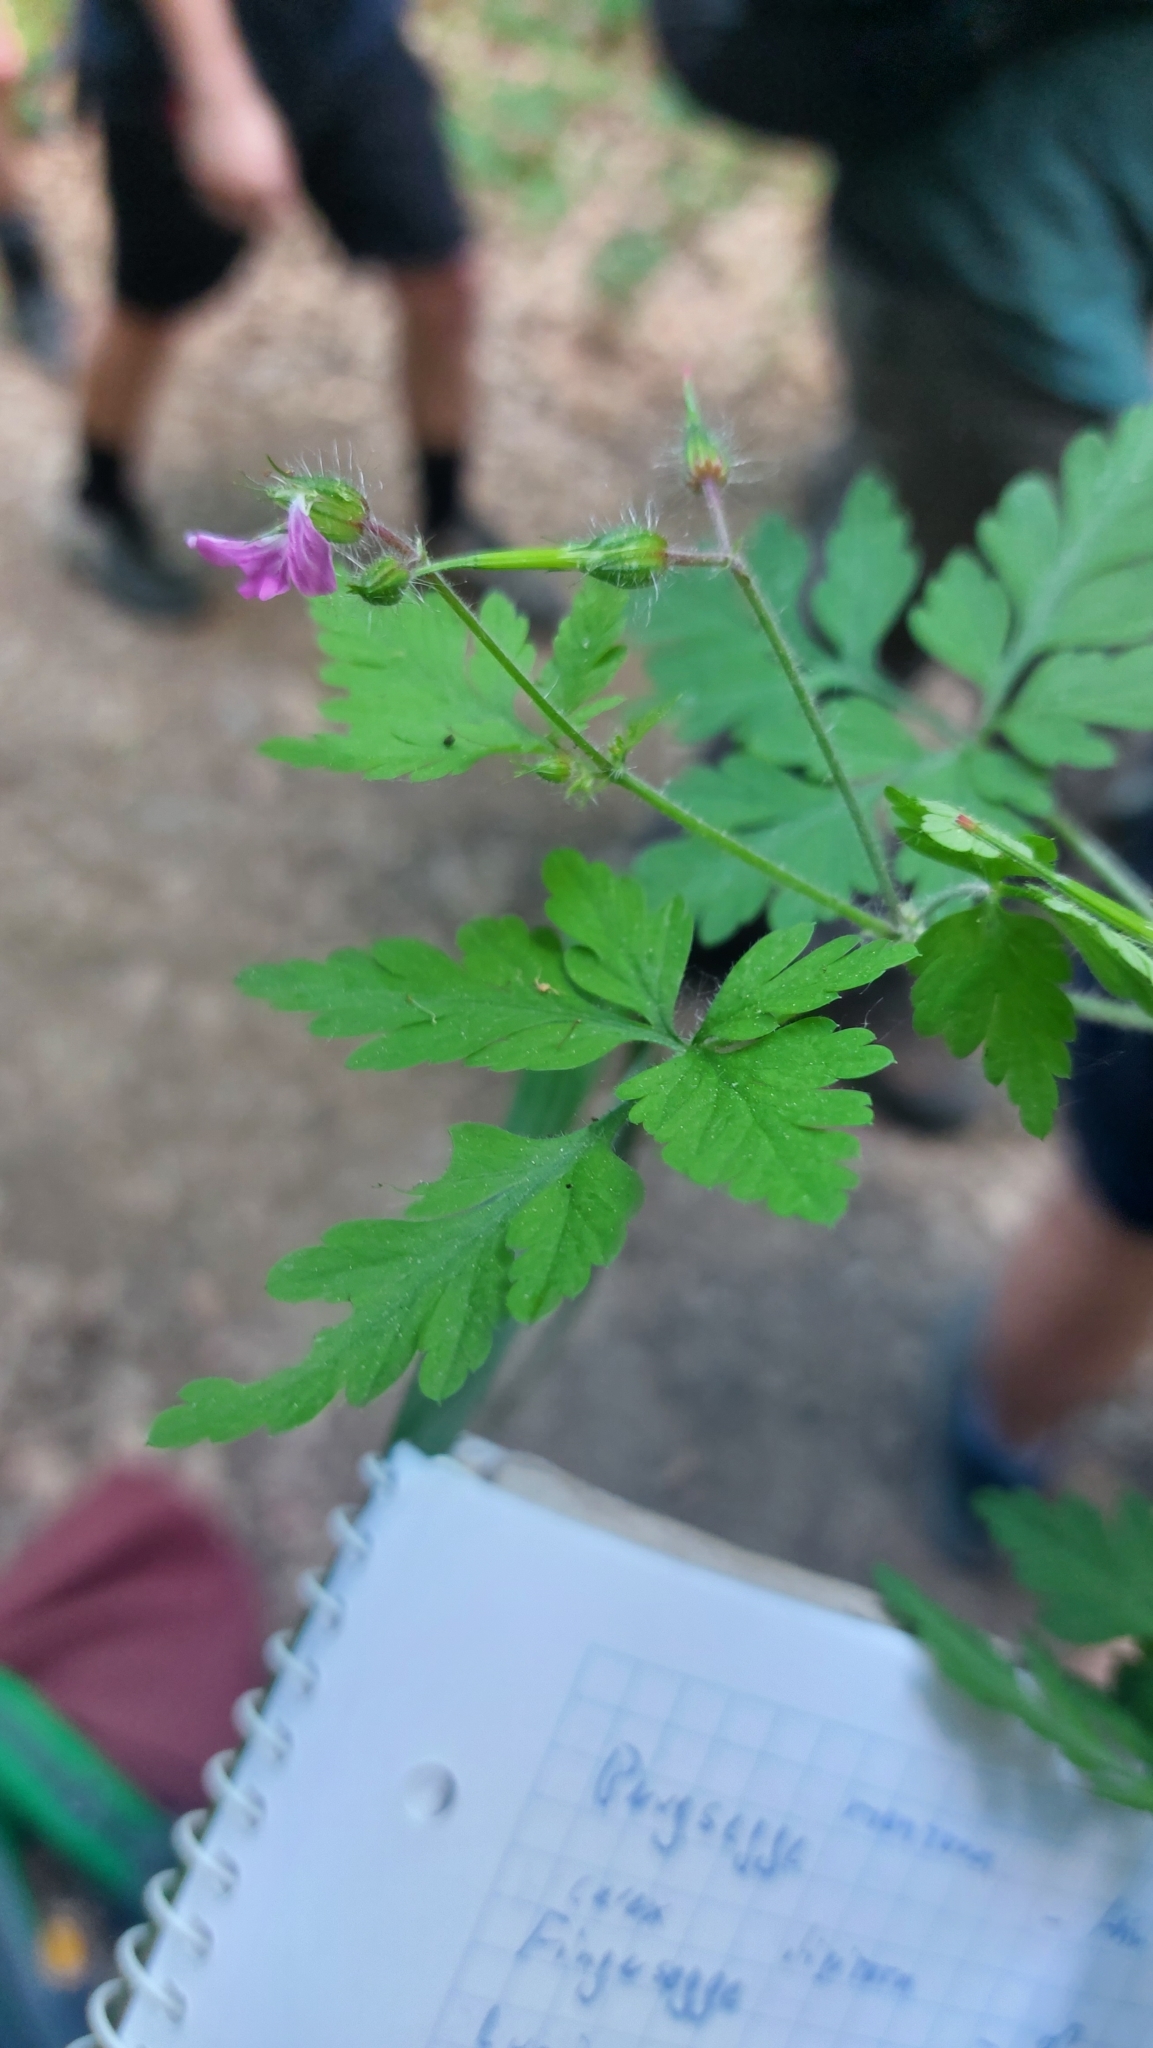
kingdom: Plantae
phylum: Tracheophyta
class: Magnoliopsida
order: Geraniales
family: Geraniaceae
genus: Geranium
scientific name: Geranium robertianum
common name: Herb-robert
